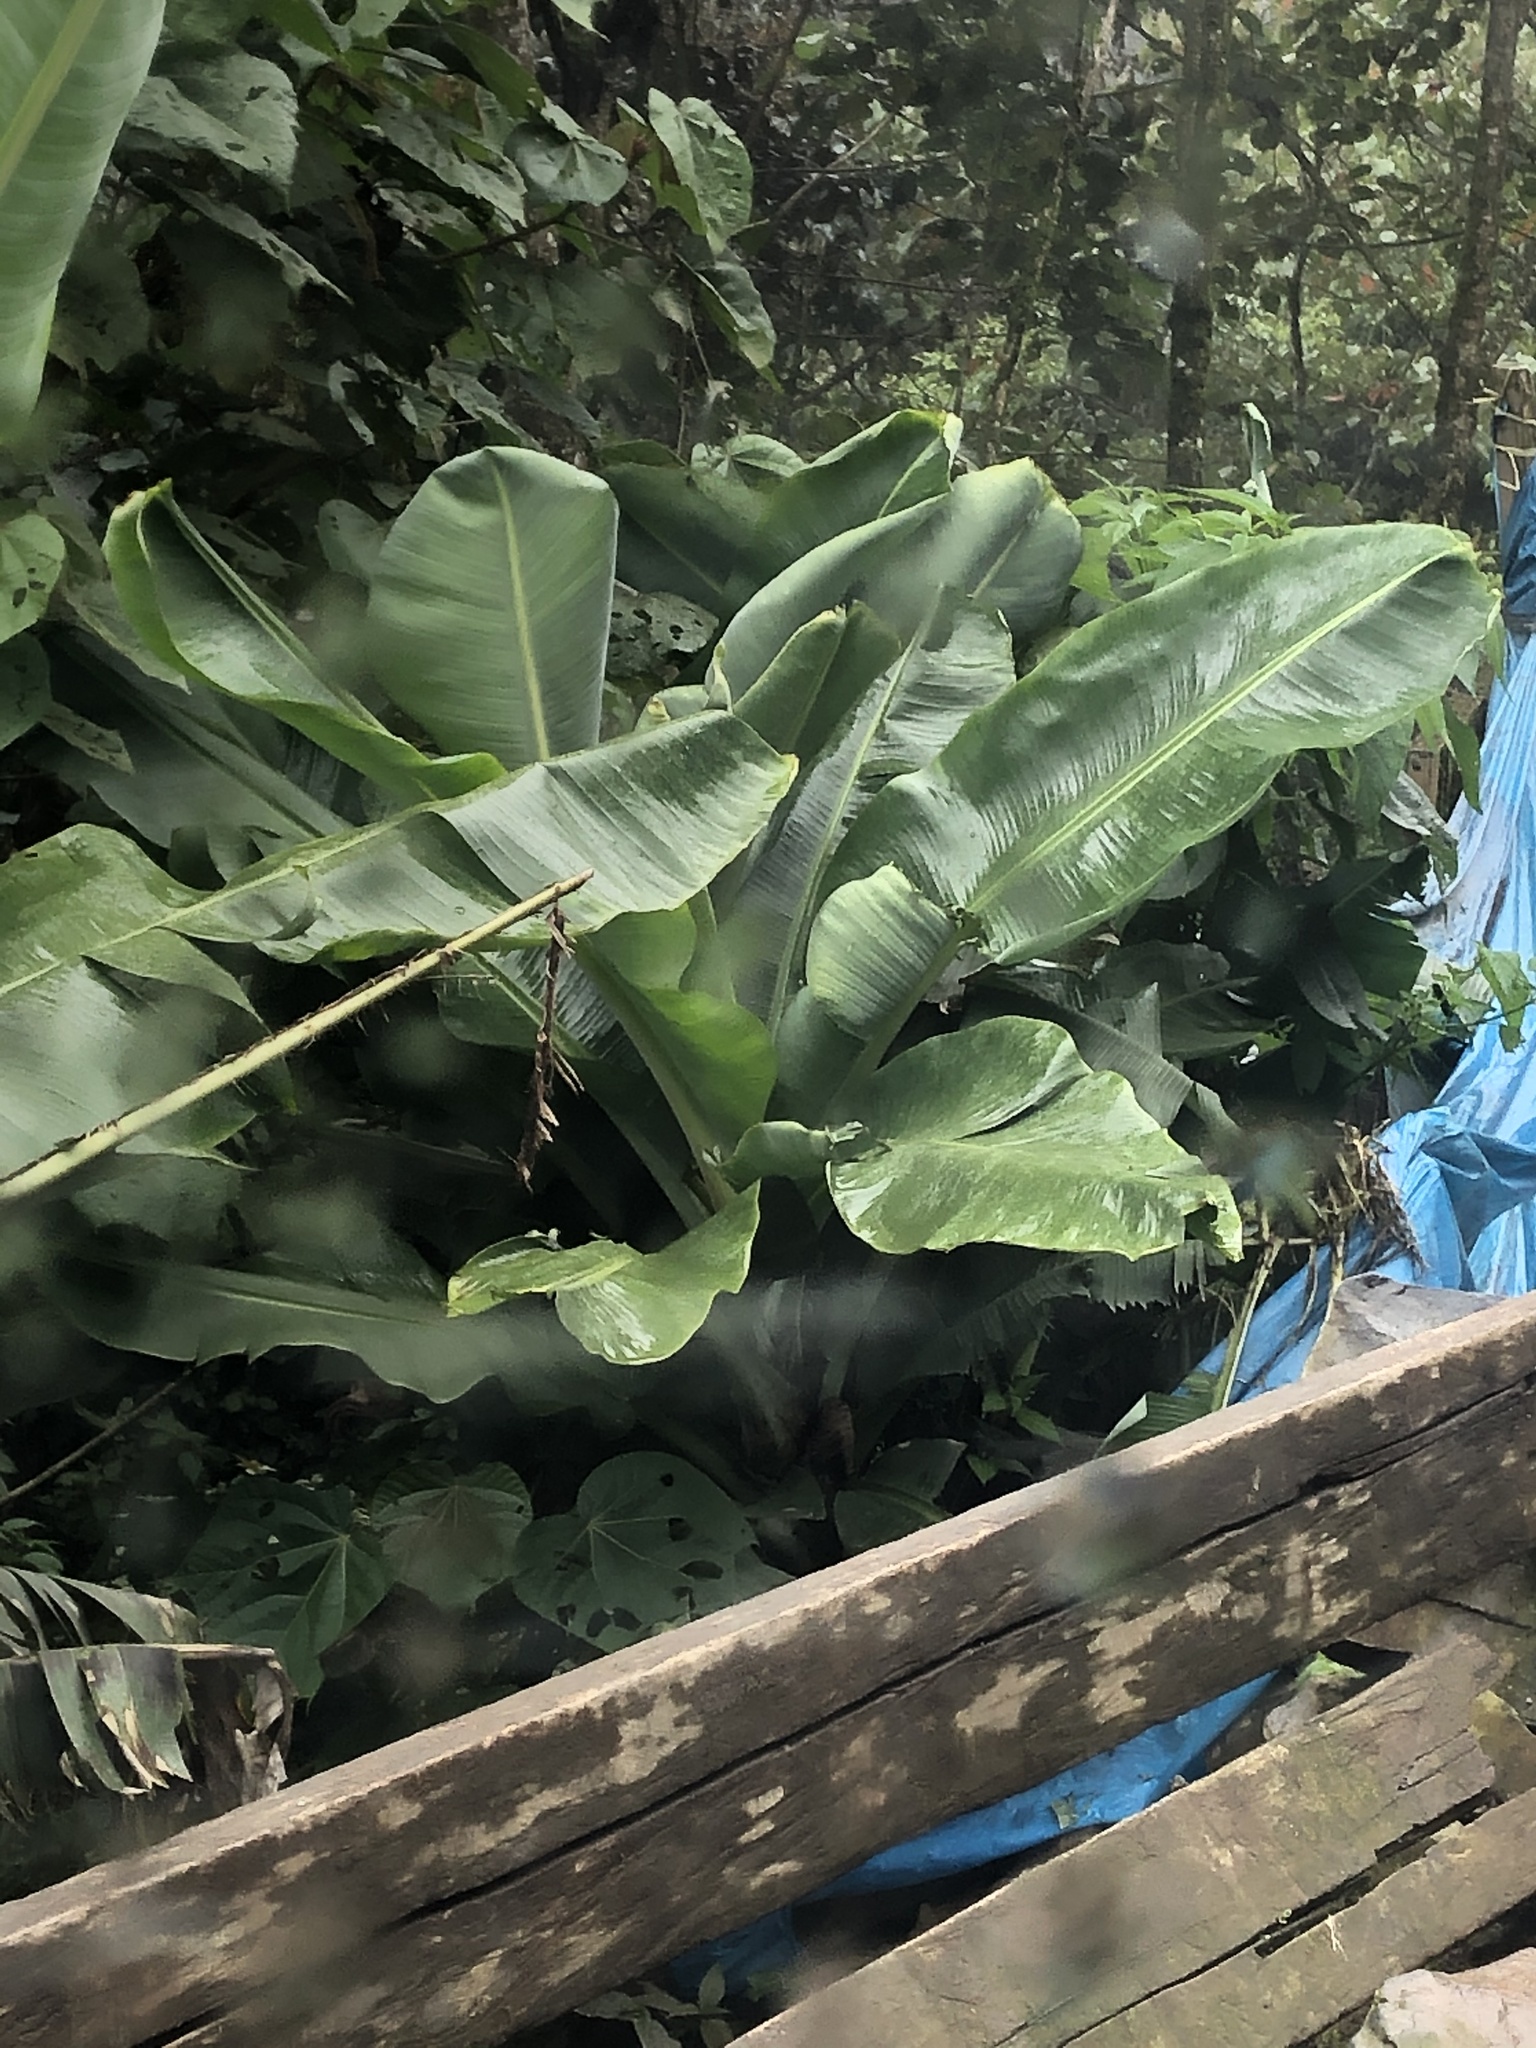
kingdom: Plantae
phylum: Tracheophyta
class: Liliopsida
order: Zingiberales
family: Musaceae
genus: Musa
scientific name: Musa acuminata
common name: Edible banana
